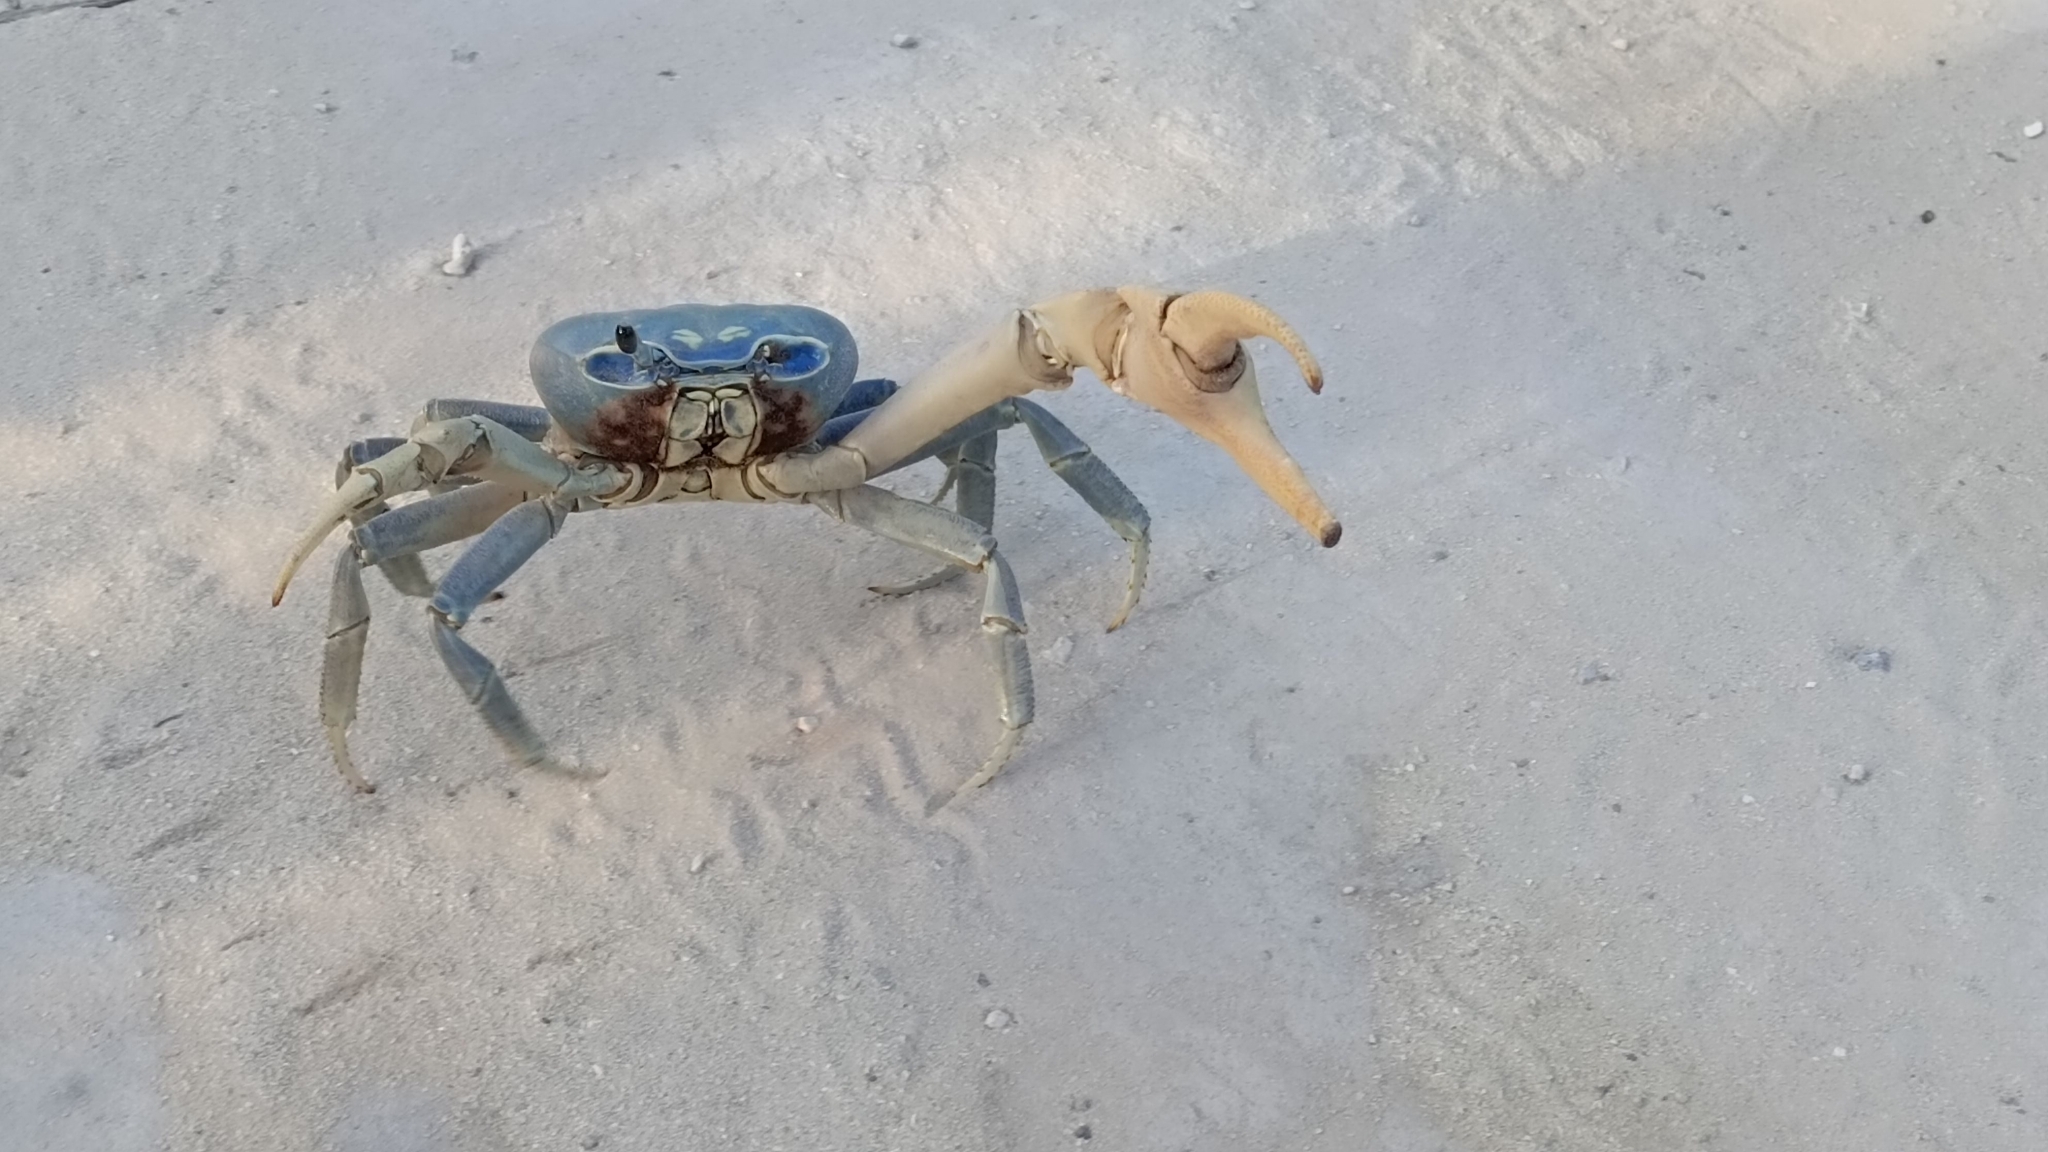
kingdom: Animalia
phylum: Arthropoda
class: Malacostraca
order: Decapoda
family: Gecarcinidae
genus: Cardisoma
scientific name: Cardisoma guanhumi
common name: Great land crab
